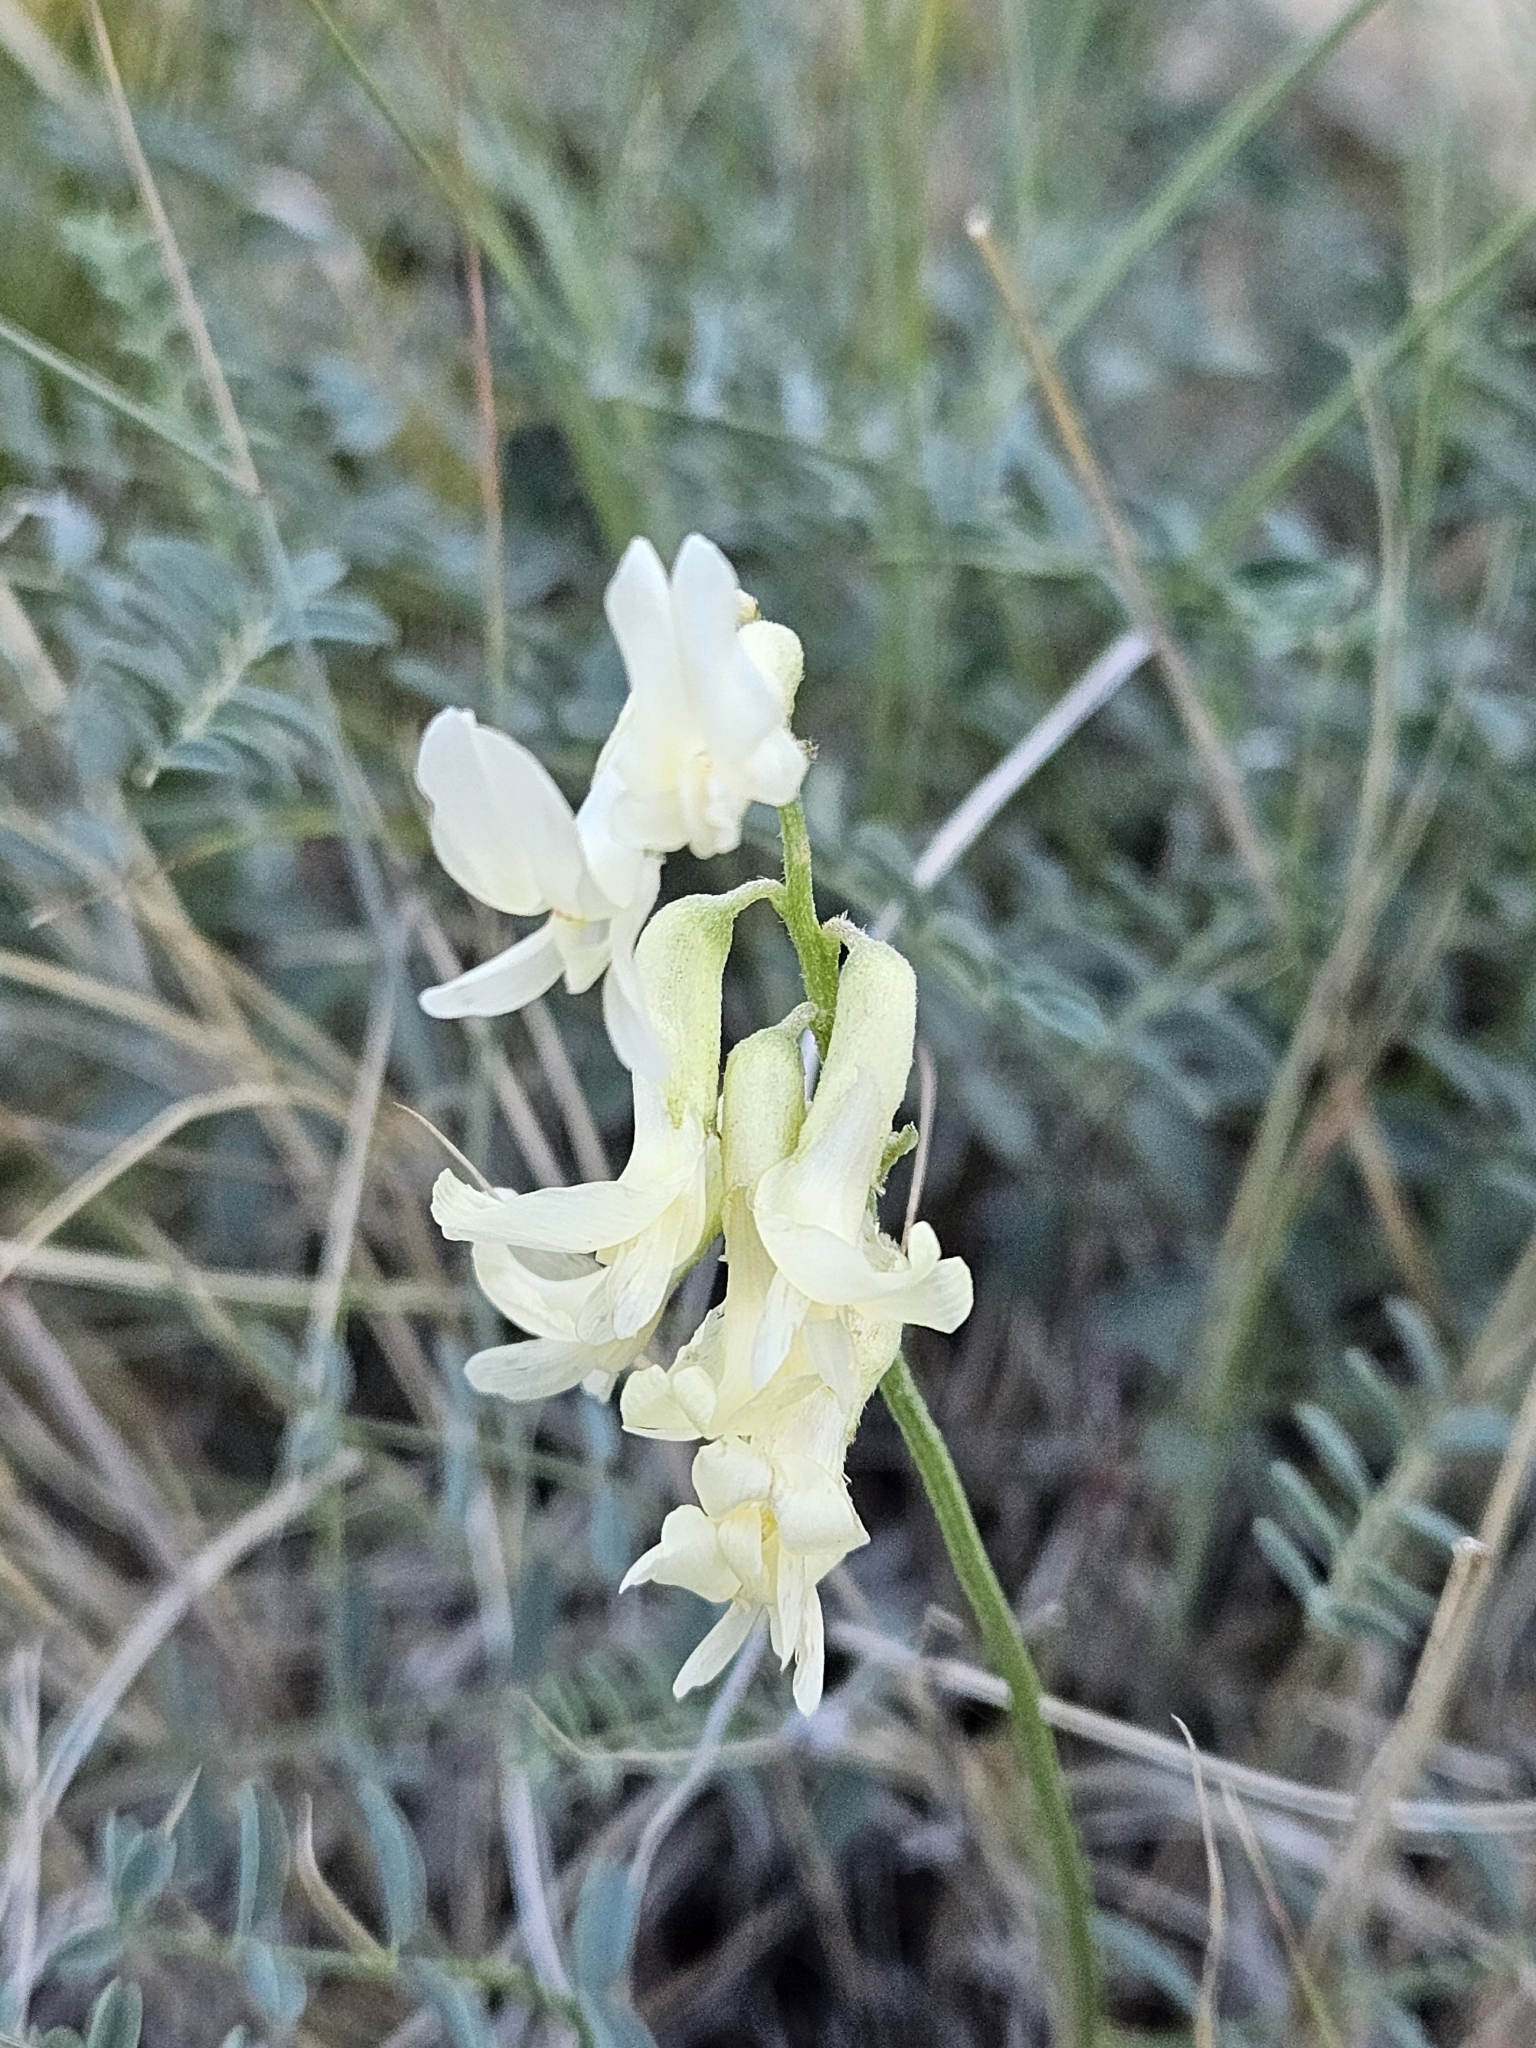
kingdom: Plantae
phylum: Tracheophyta
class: Magnoliopsida
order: Fabales
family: Fabaceae
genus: Astragalus
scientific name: Astragalus filipes
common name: Basalt milk-vetch
